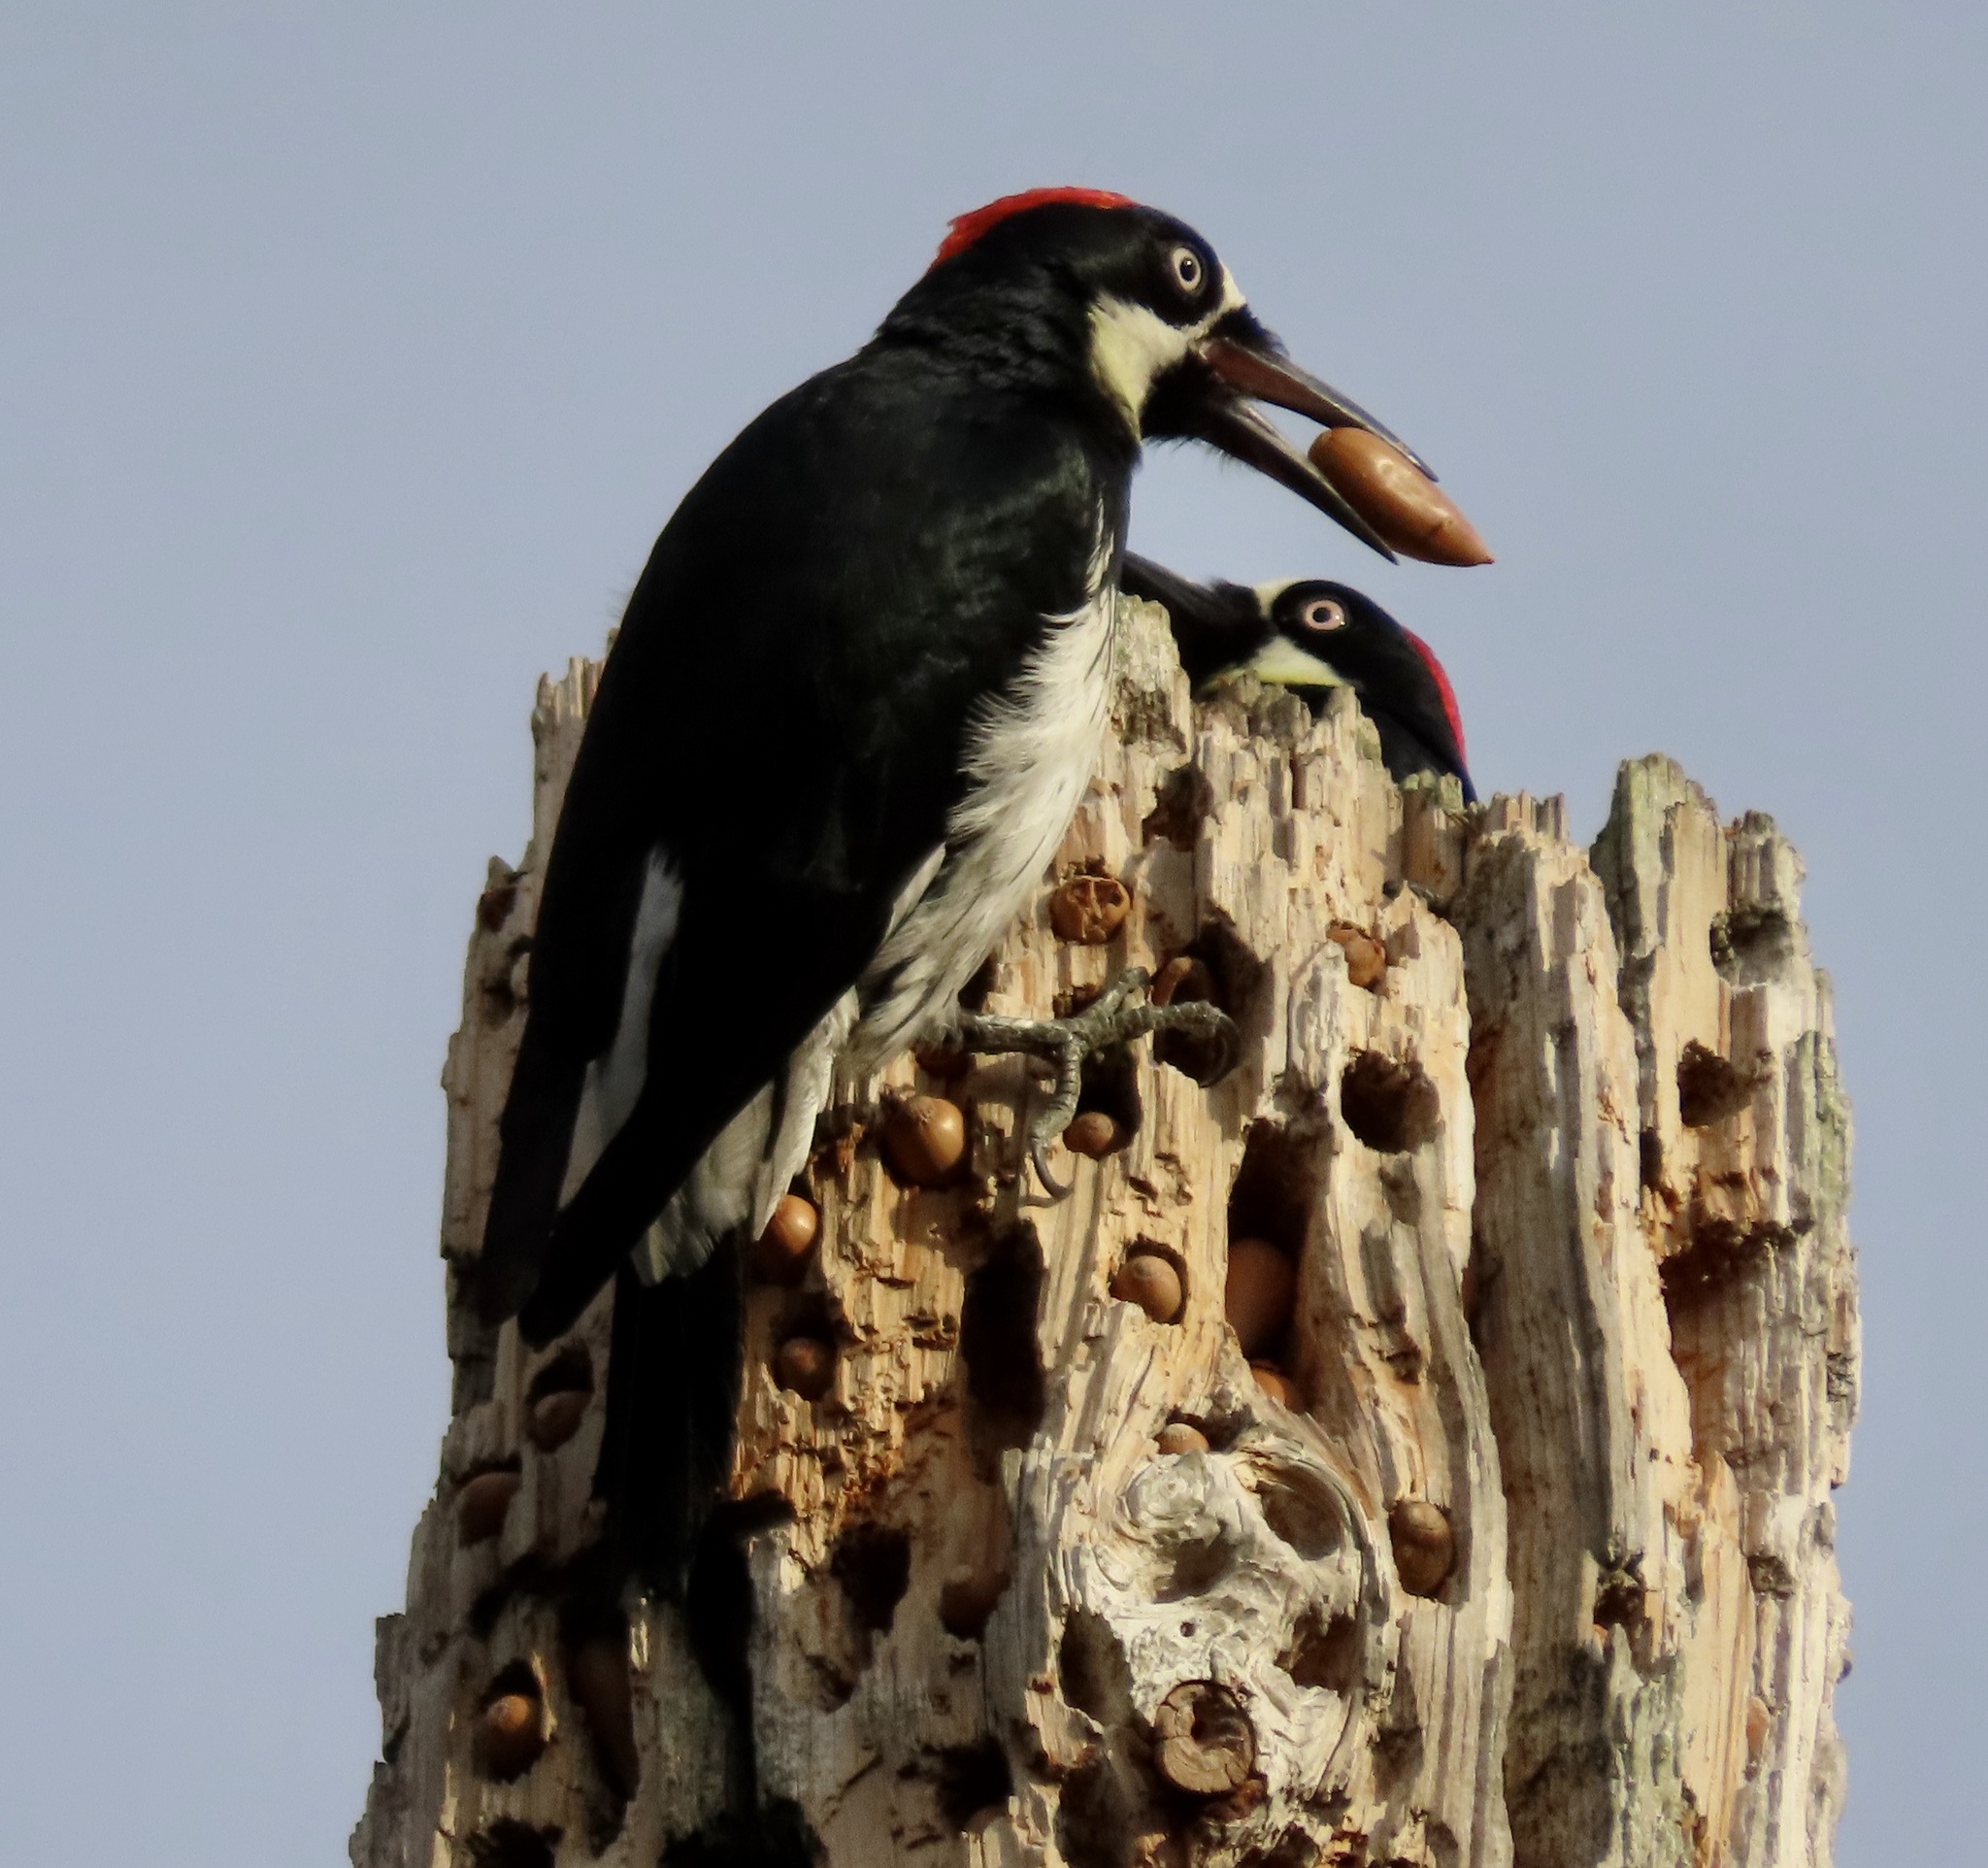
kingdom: Animalia
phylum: Chordata
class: Aves
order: Piciformes
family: Picidae
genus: Melanerpes
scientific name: Melanerpes formicivorus
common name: Acorn woodpecker
